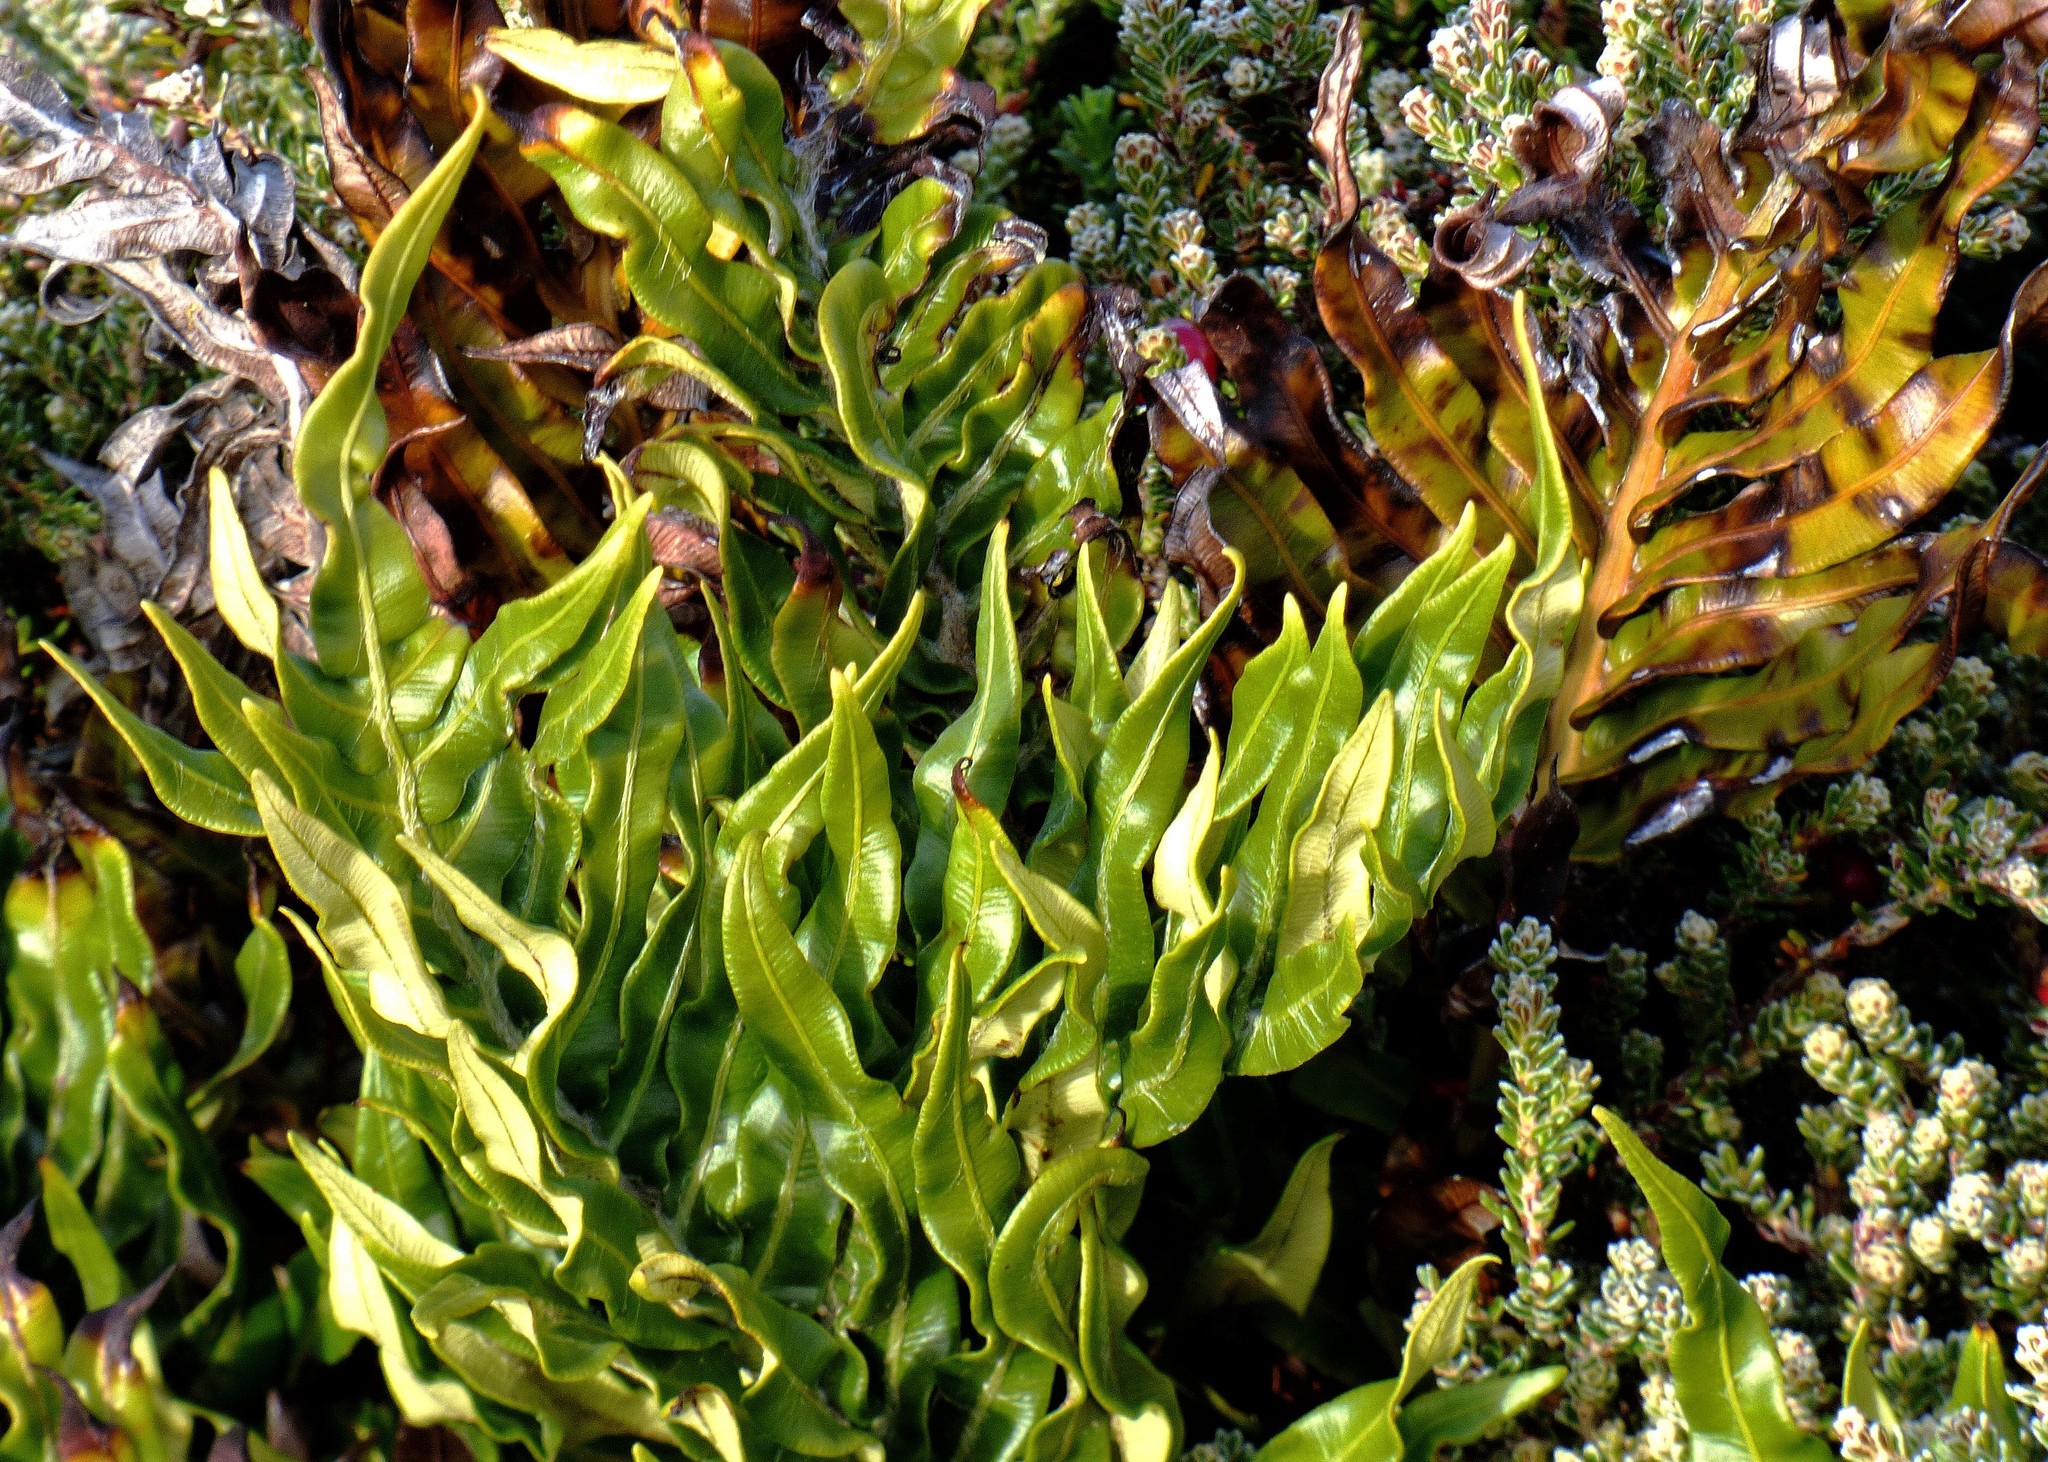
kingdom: Plantae
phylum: Tracheophyta
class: Polypodiopsida
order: Polypodiales
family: Blechnaceae
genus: Lomariocycas
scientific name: Lomariocycas magellanica
